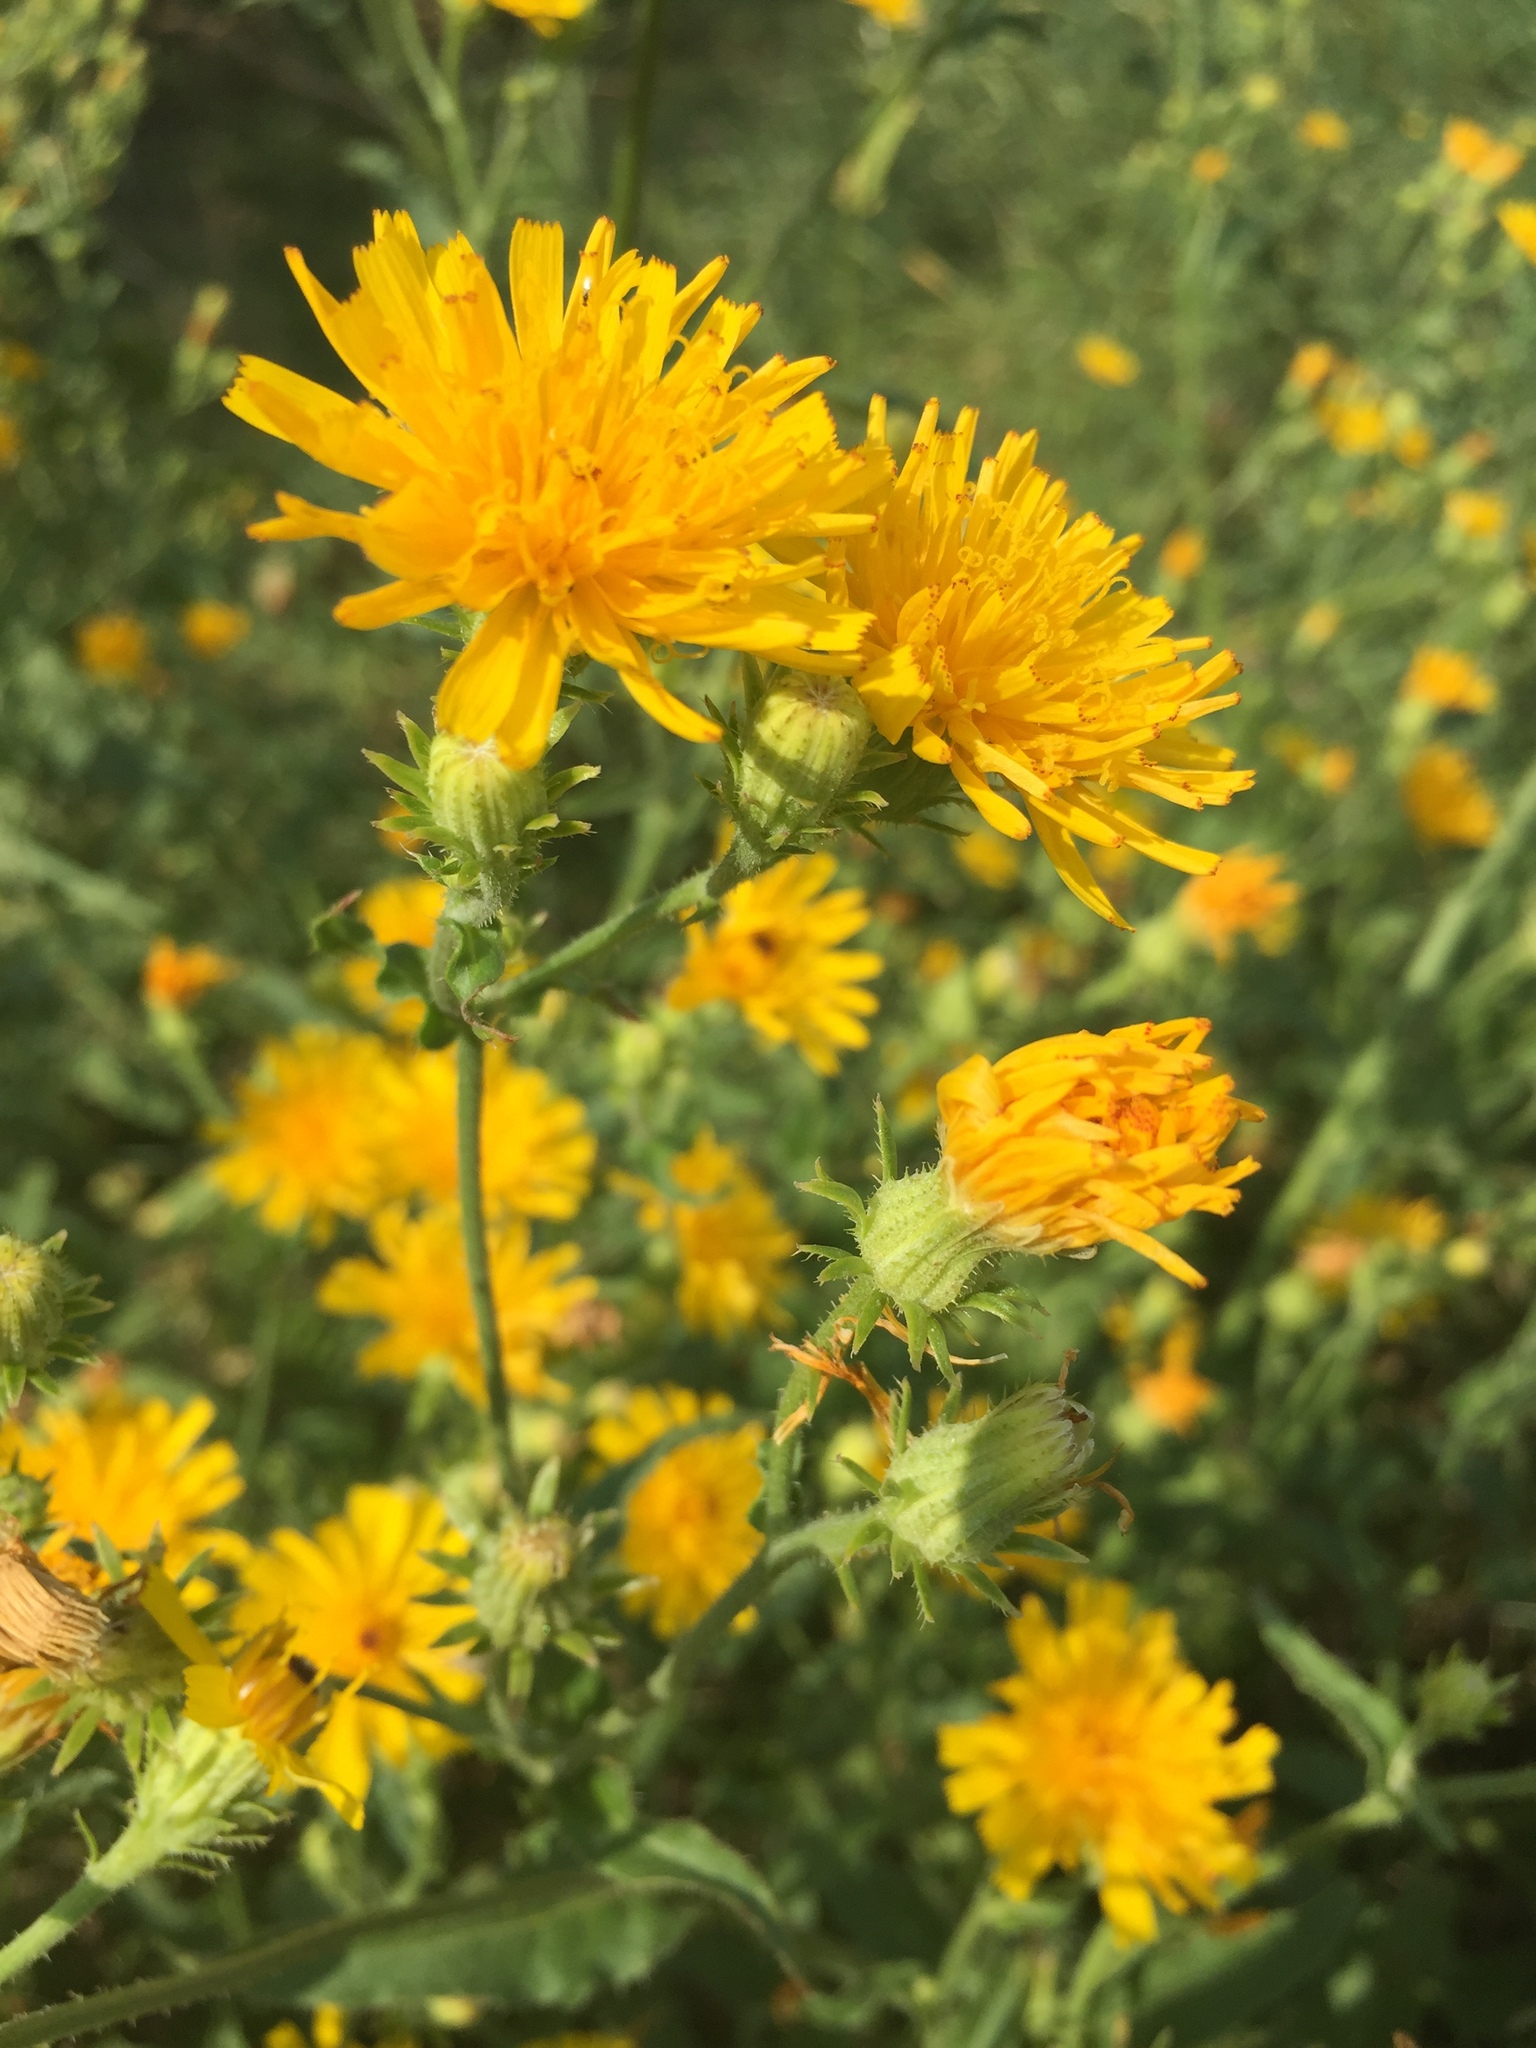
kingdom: Plantae
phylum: Tracheophyta
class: Magnoliopsida
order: Asterales
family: Asteraceae
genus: Picris
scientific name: Picris hieracioides
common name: Hawkweed oxtongue
